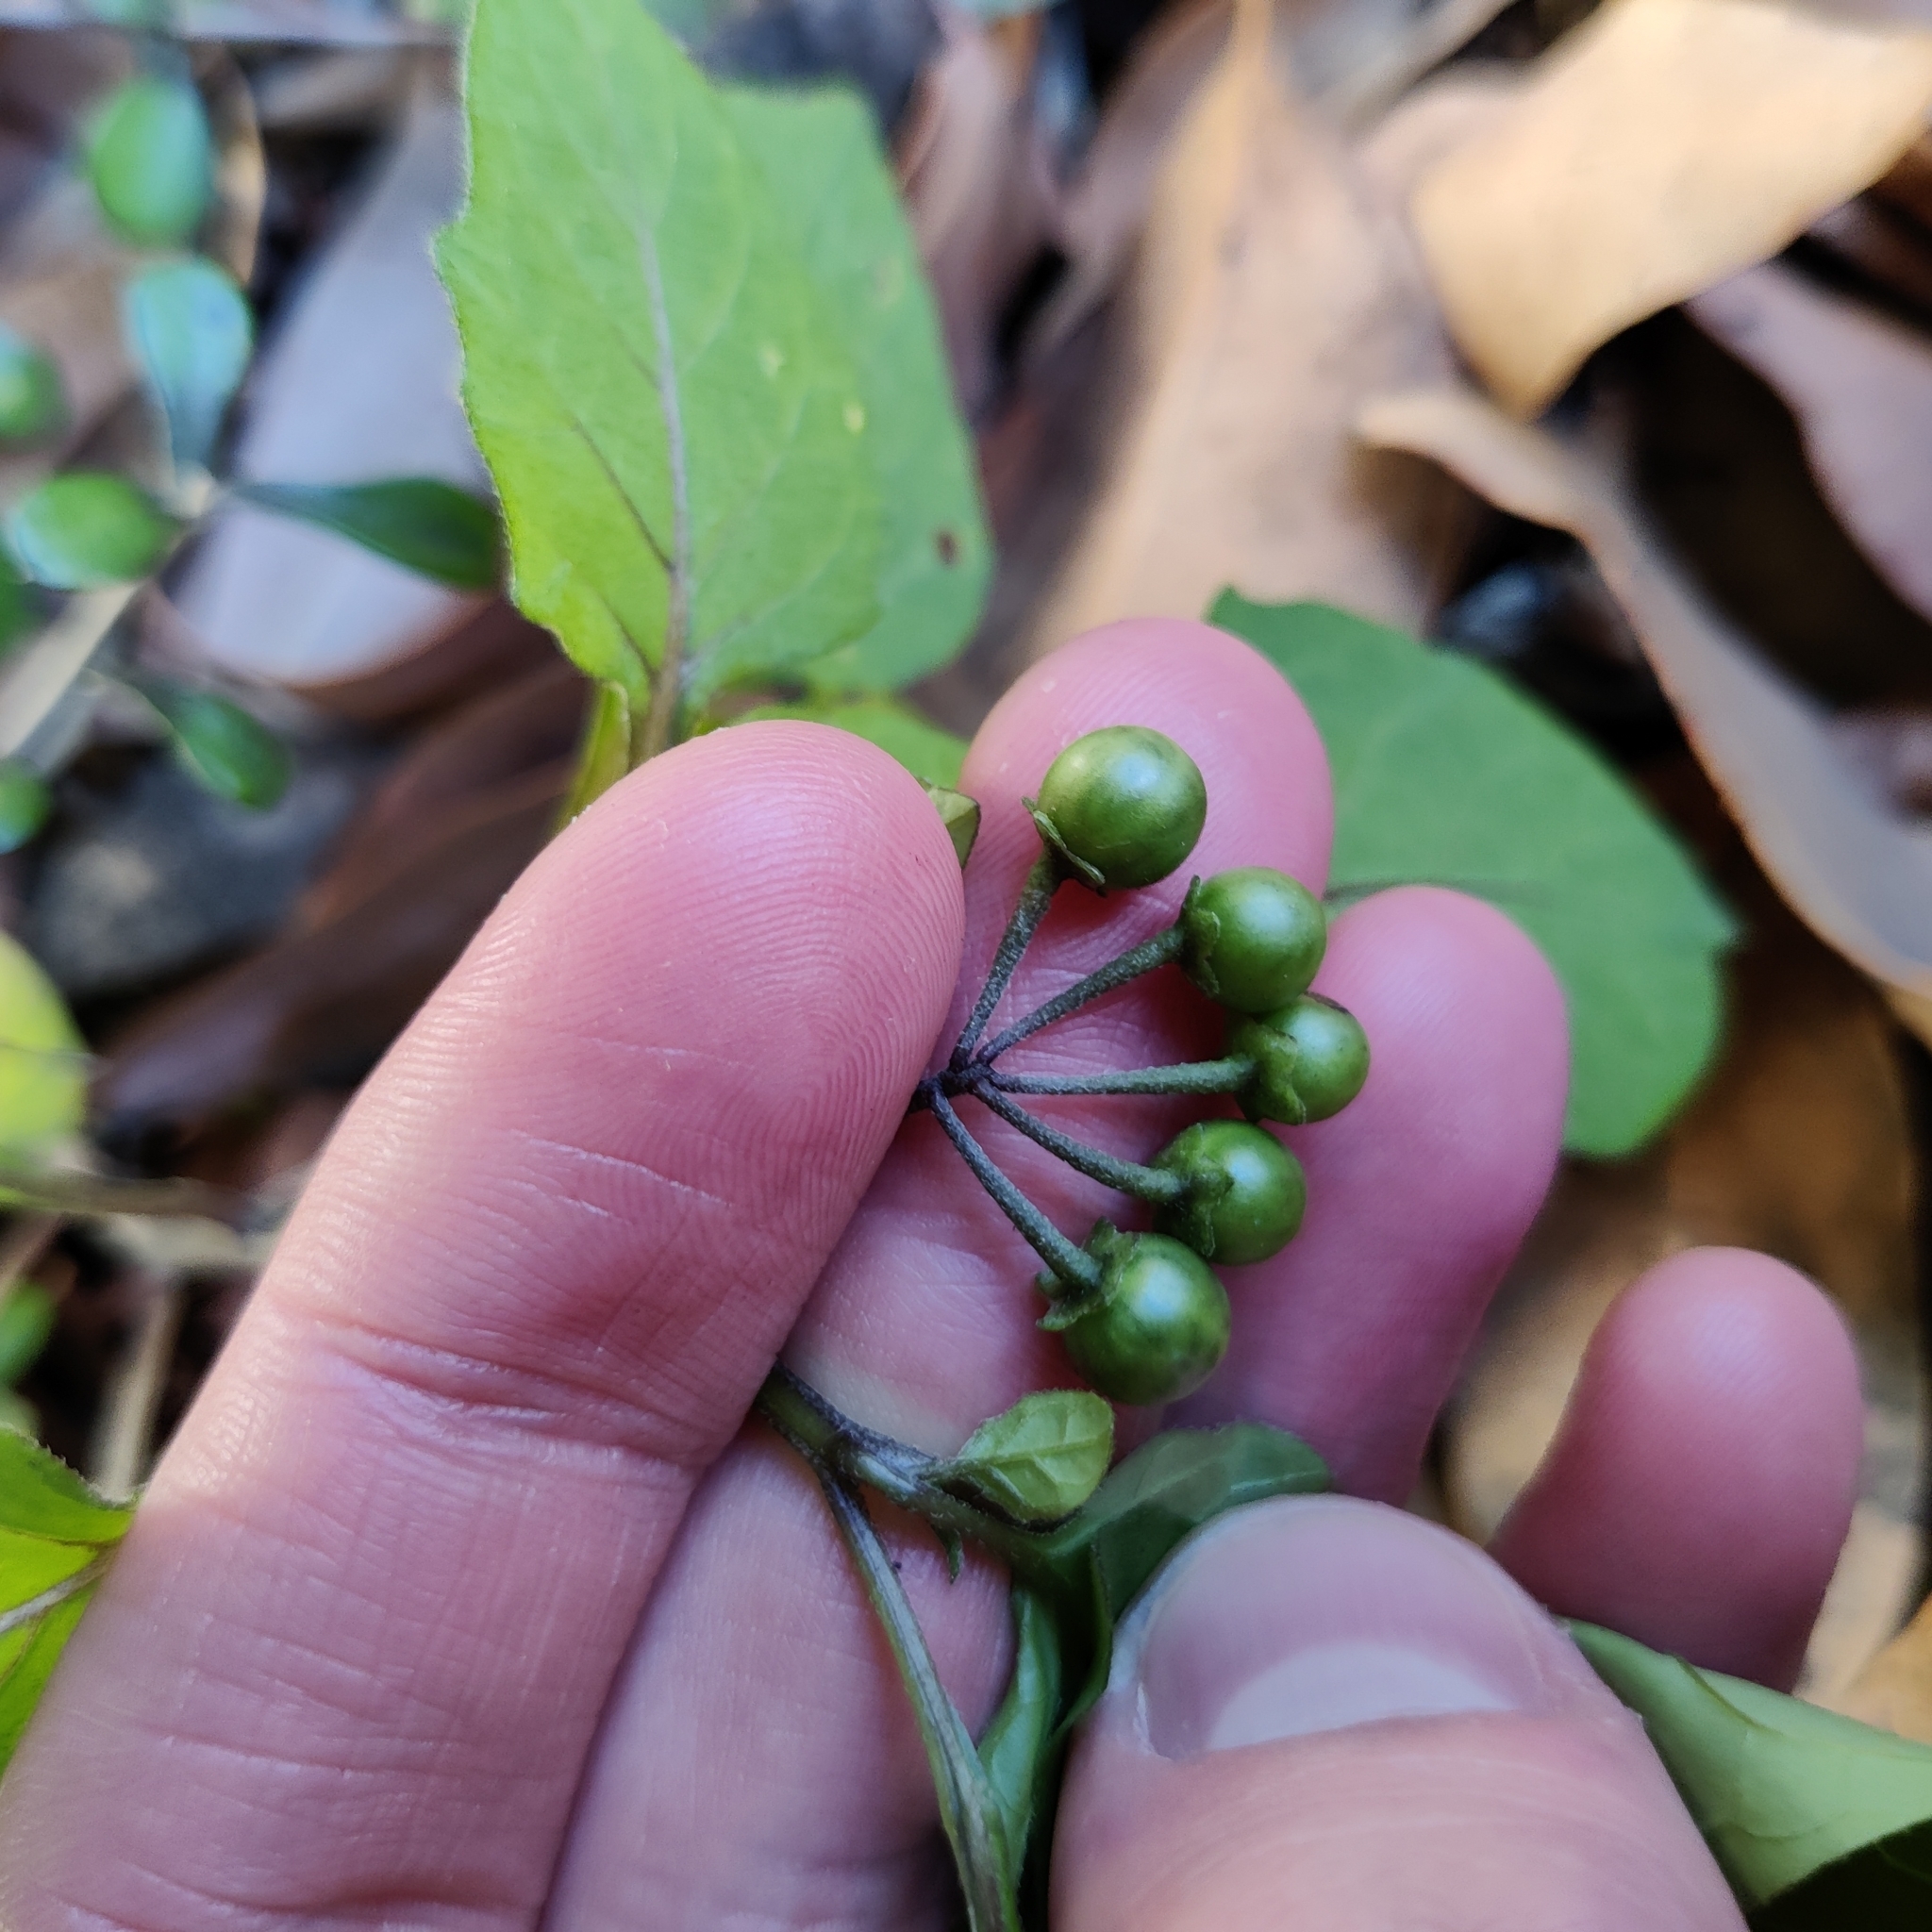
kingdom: Plantae
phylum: Tracheophyta
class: Magnoliopsida
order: Solanales
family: Solanaceae
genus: Solanum
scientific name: Solanum nigrum
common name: Black nightshade
